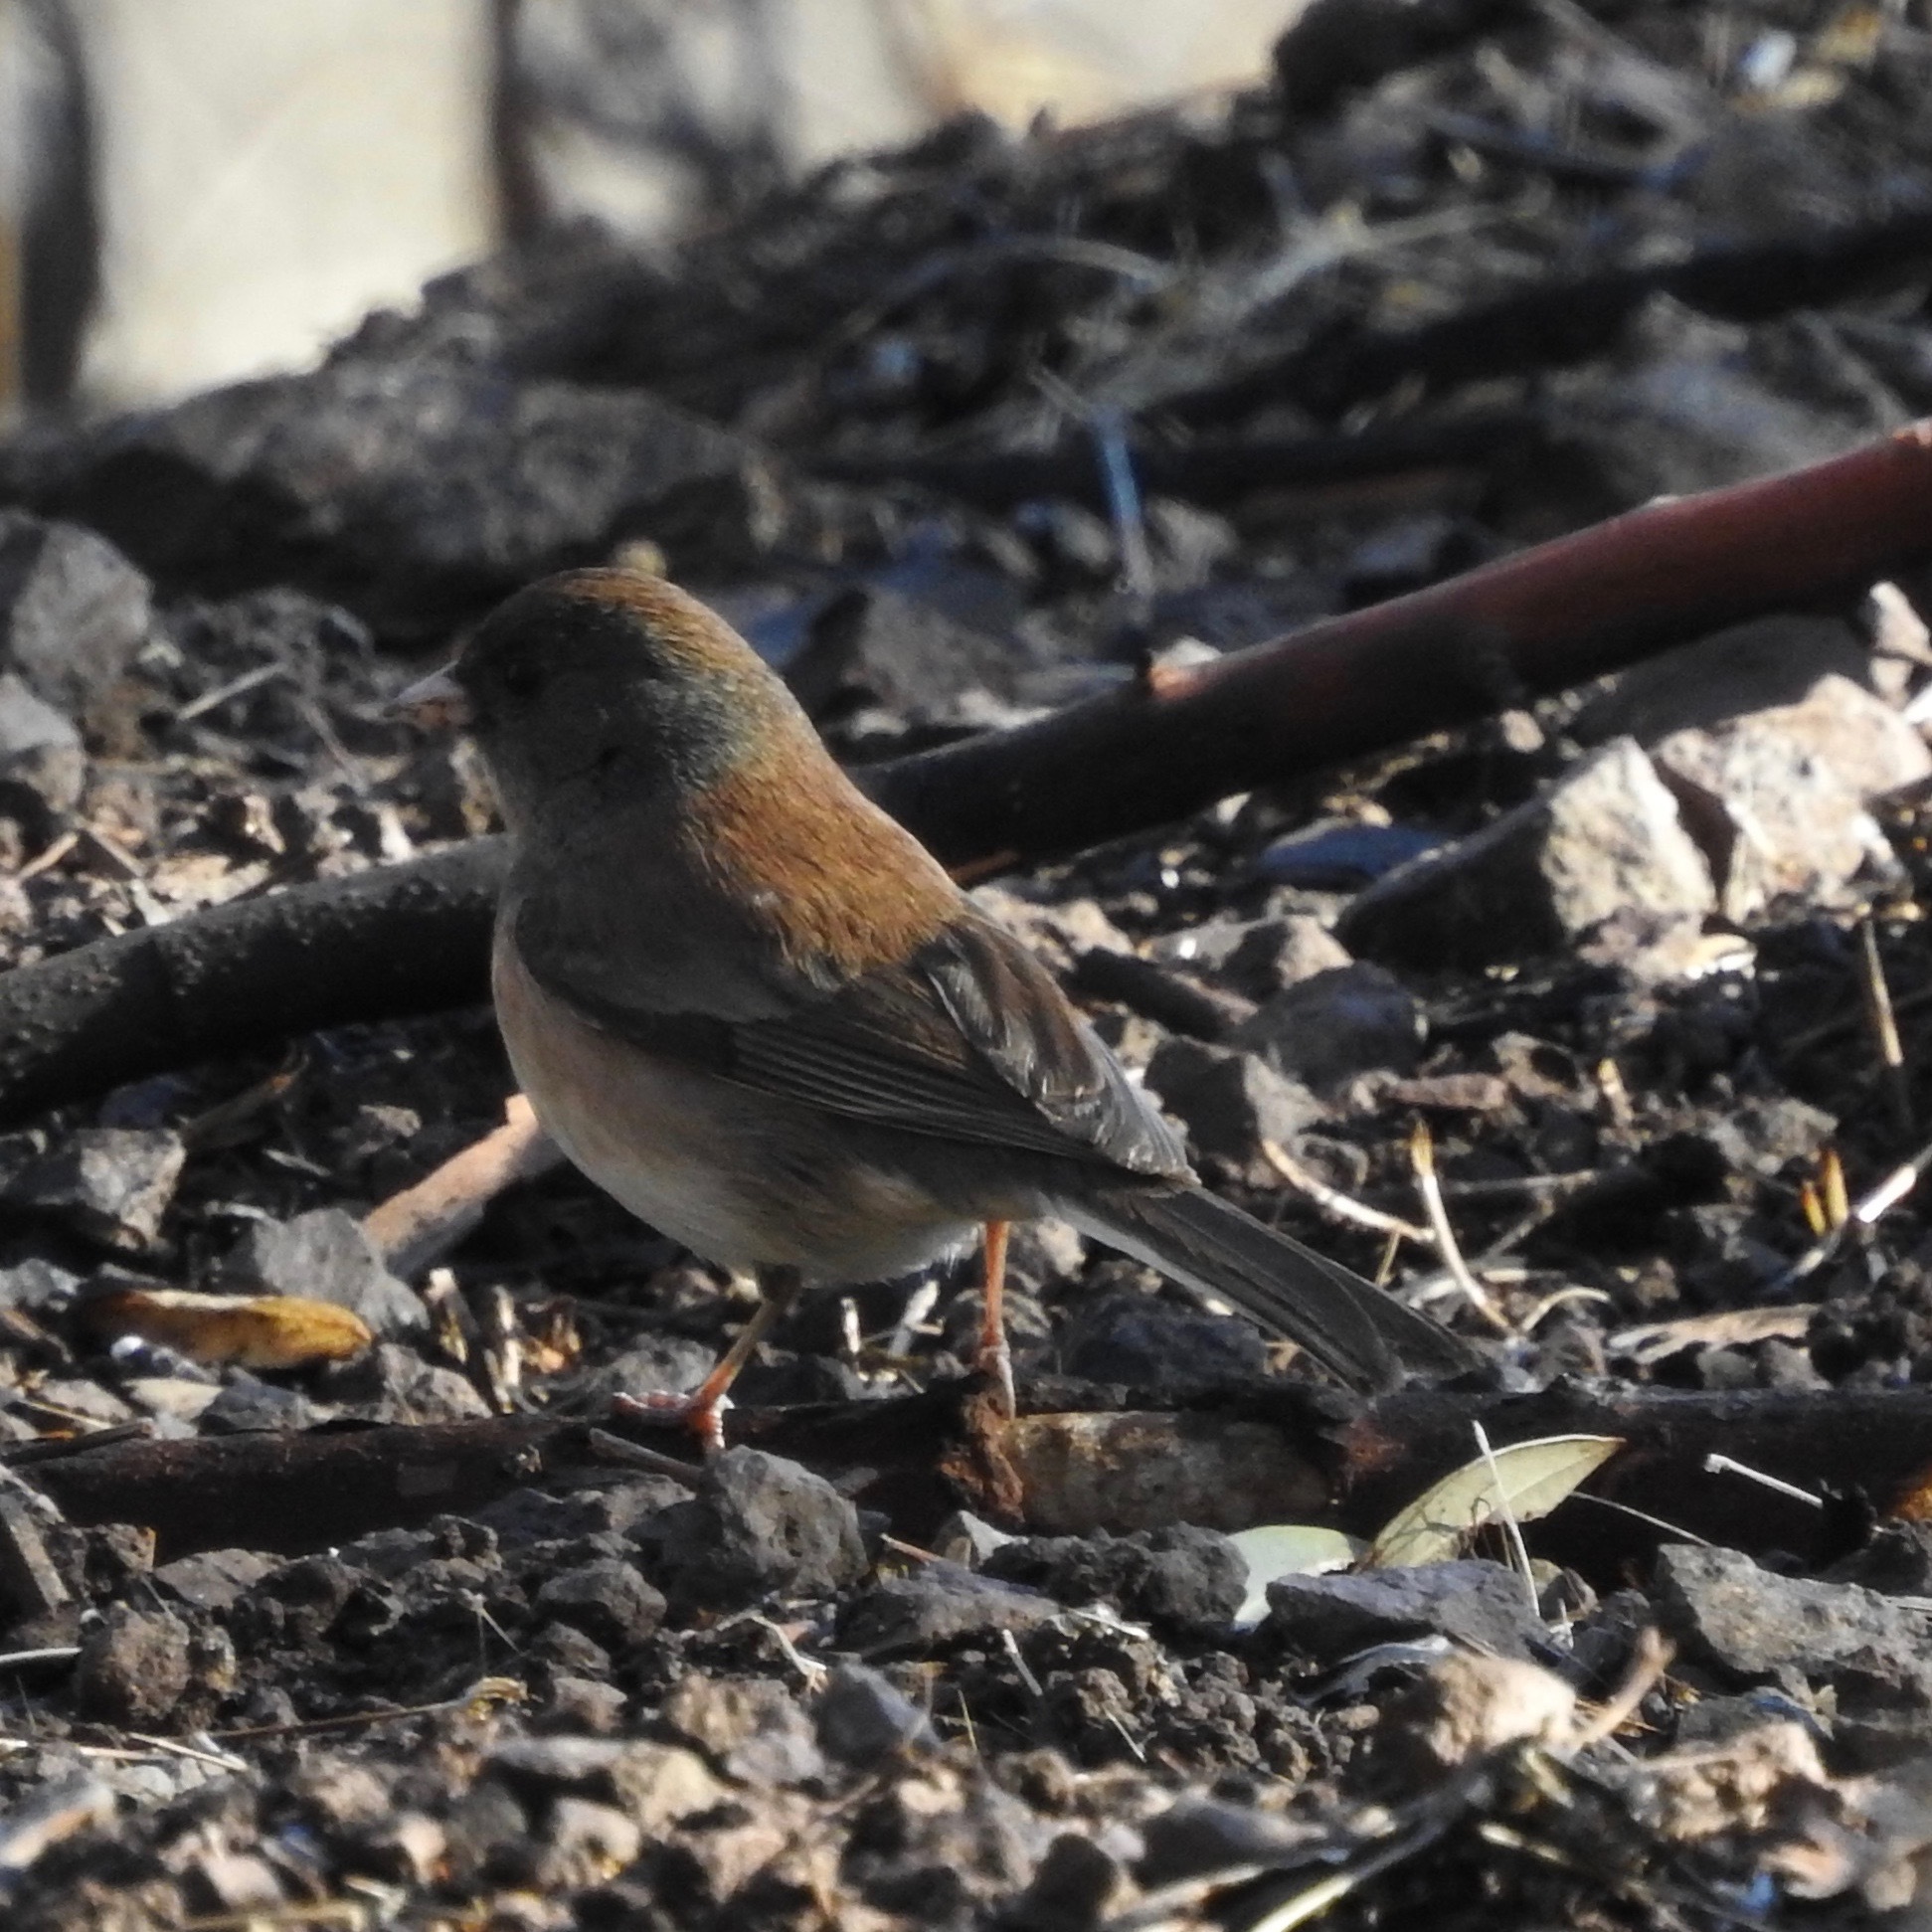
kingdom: Animalia
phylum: Chordata
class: Aves
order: Passeriformes
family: Passerellidae
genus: Junco
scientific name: Junco hyemalis
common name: Dark-eyed junco
